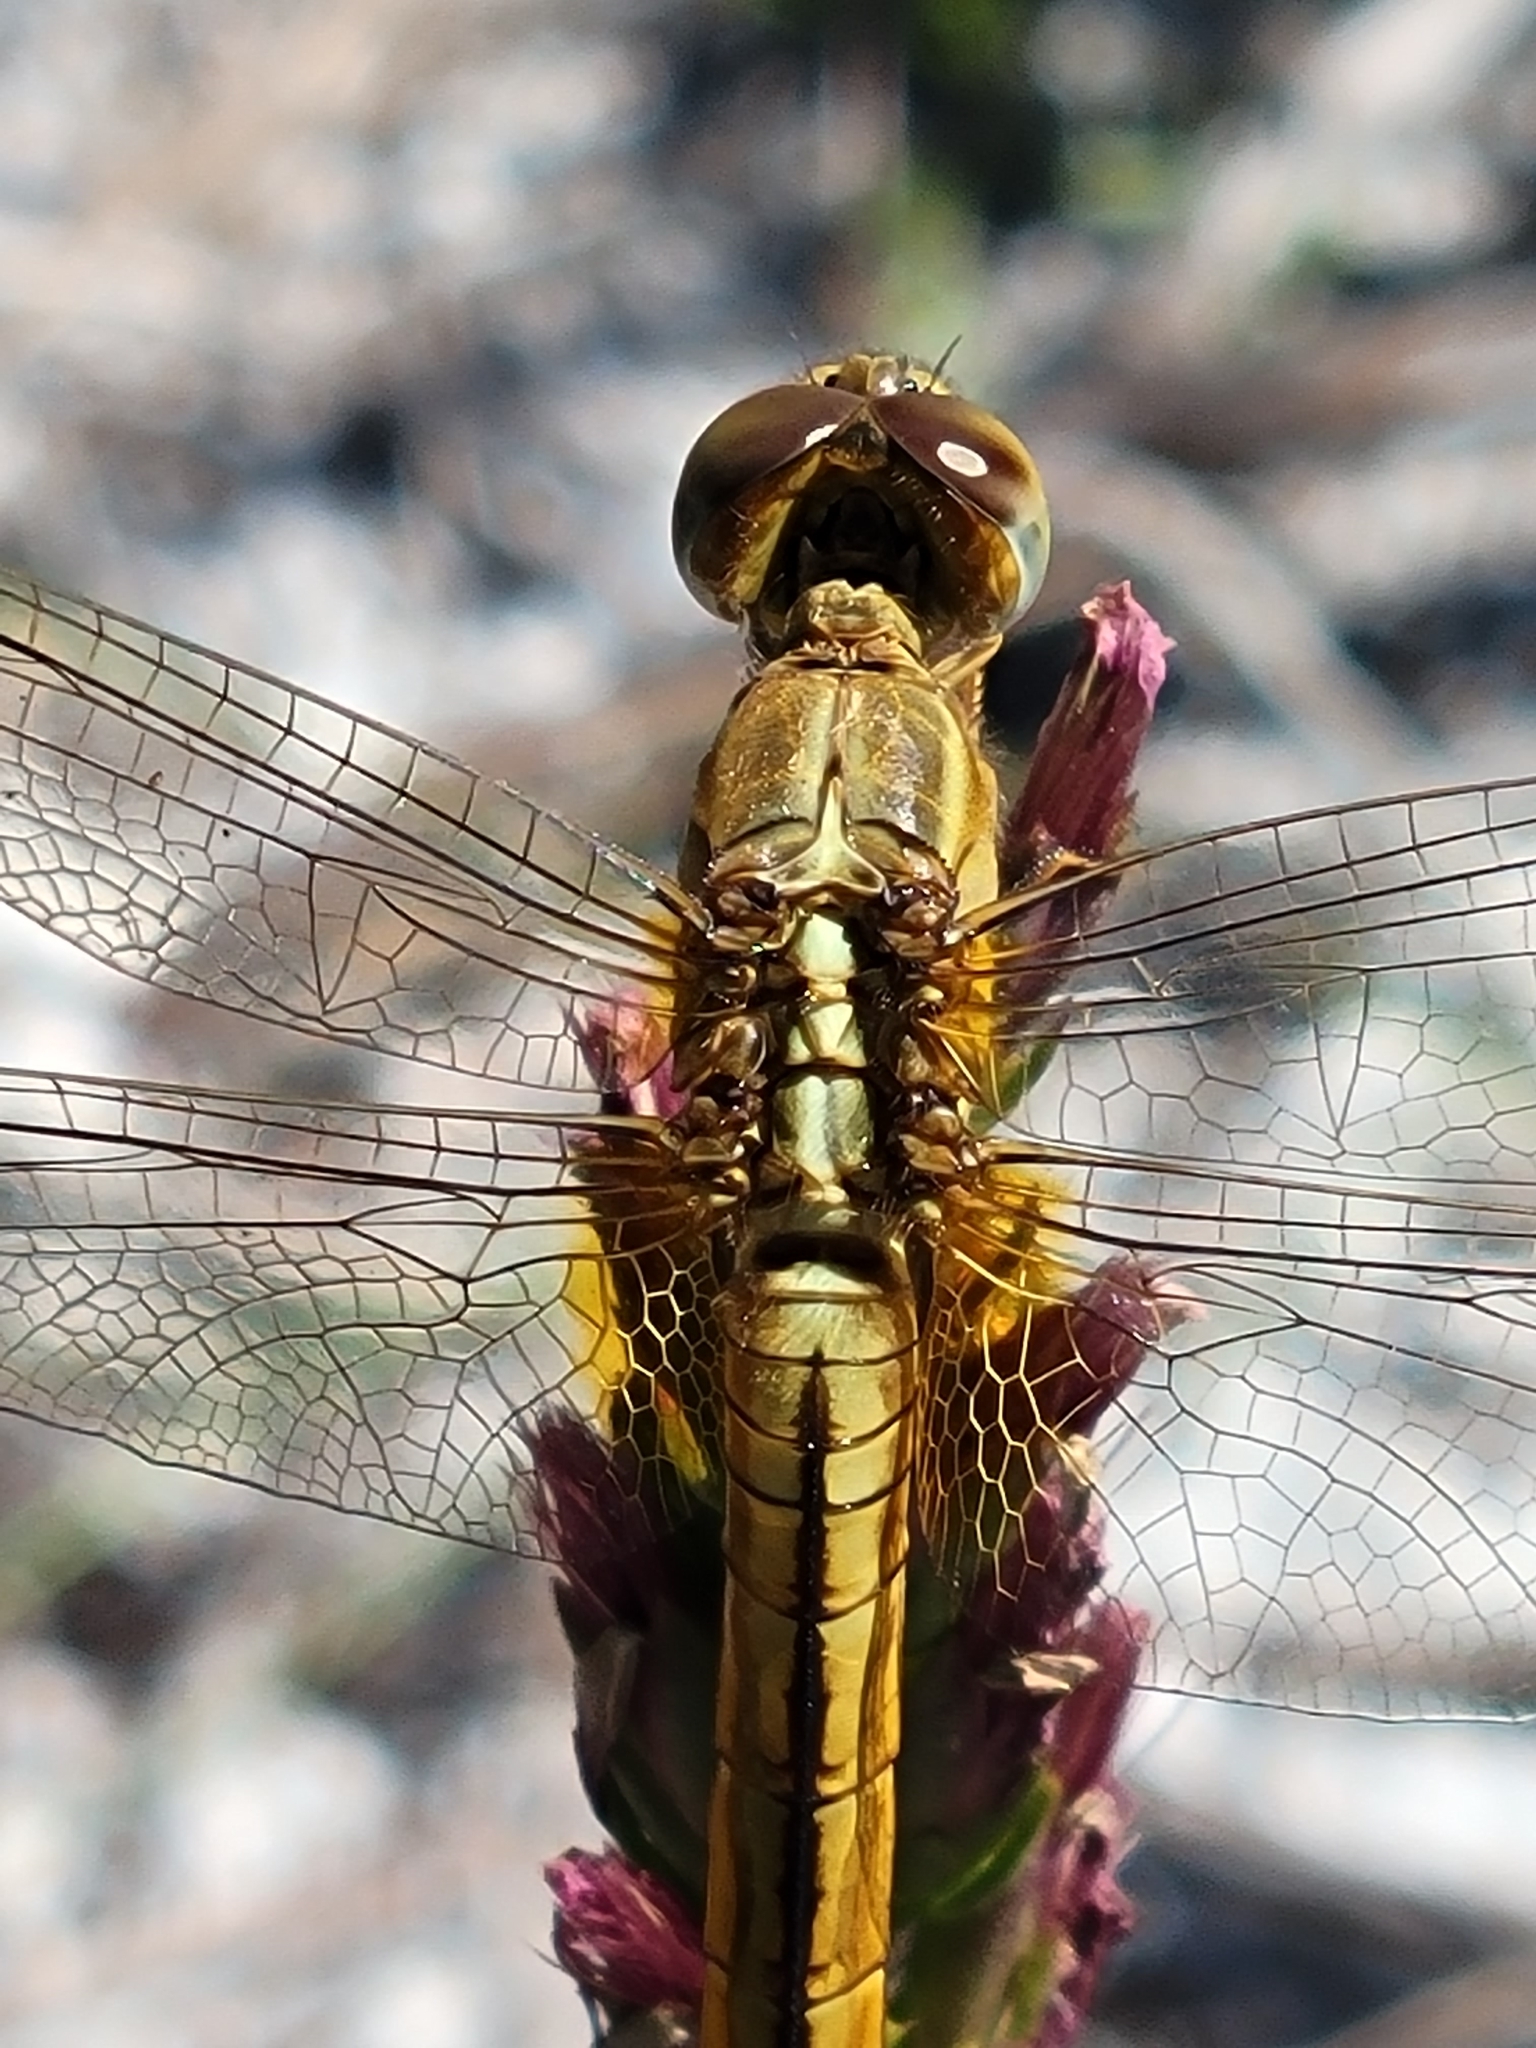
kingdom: Animalia
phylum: Arthropoda
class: Insecta
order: Odonata
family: Libellulidae
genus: Crocothemis
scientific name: Crocothemis servilia
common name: Scarlet skimmer
